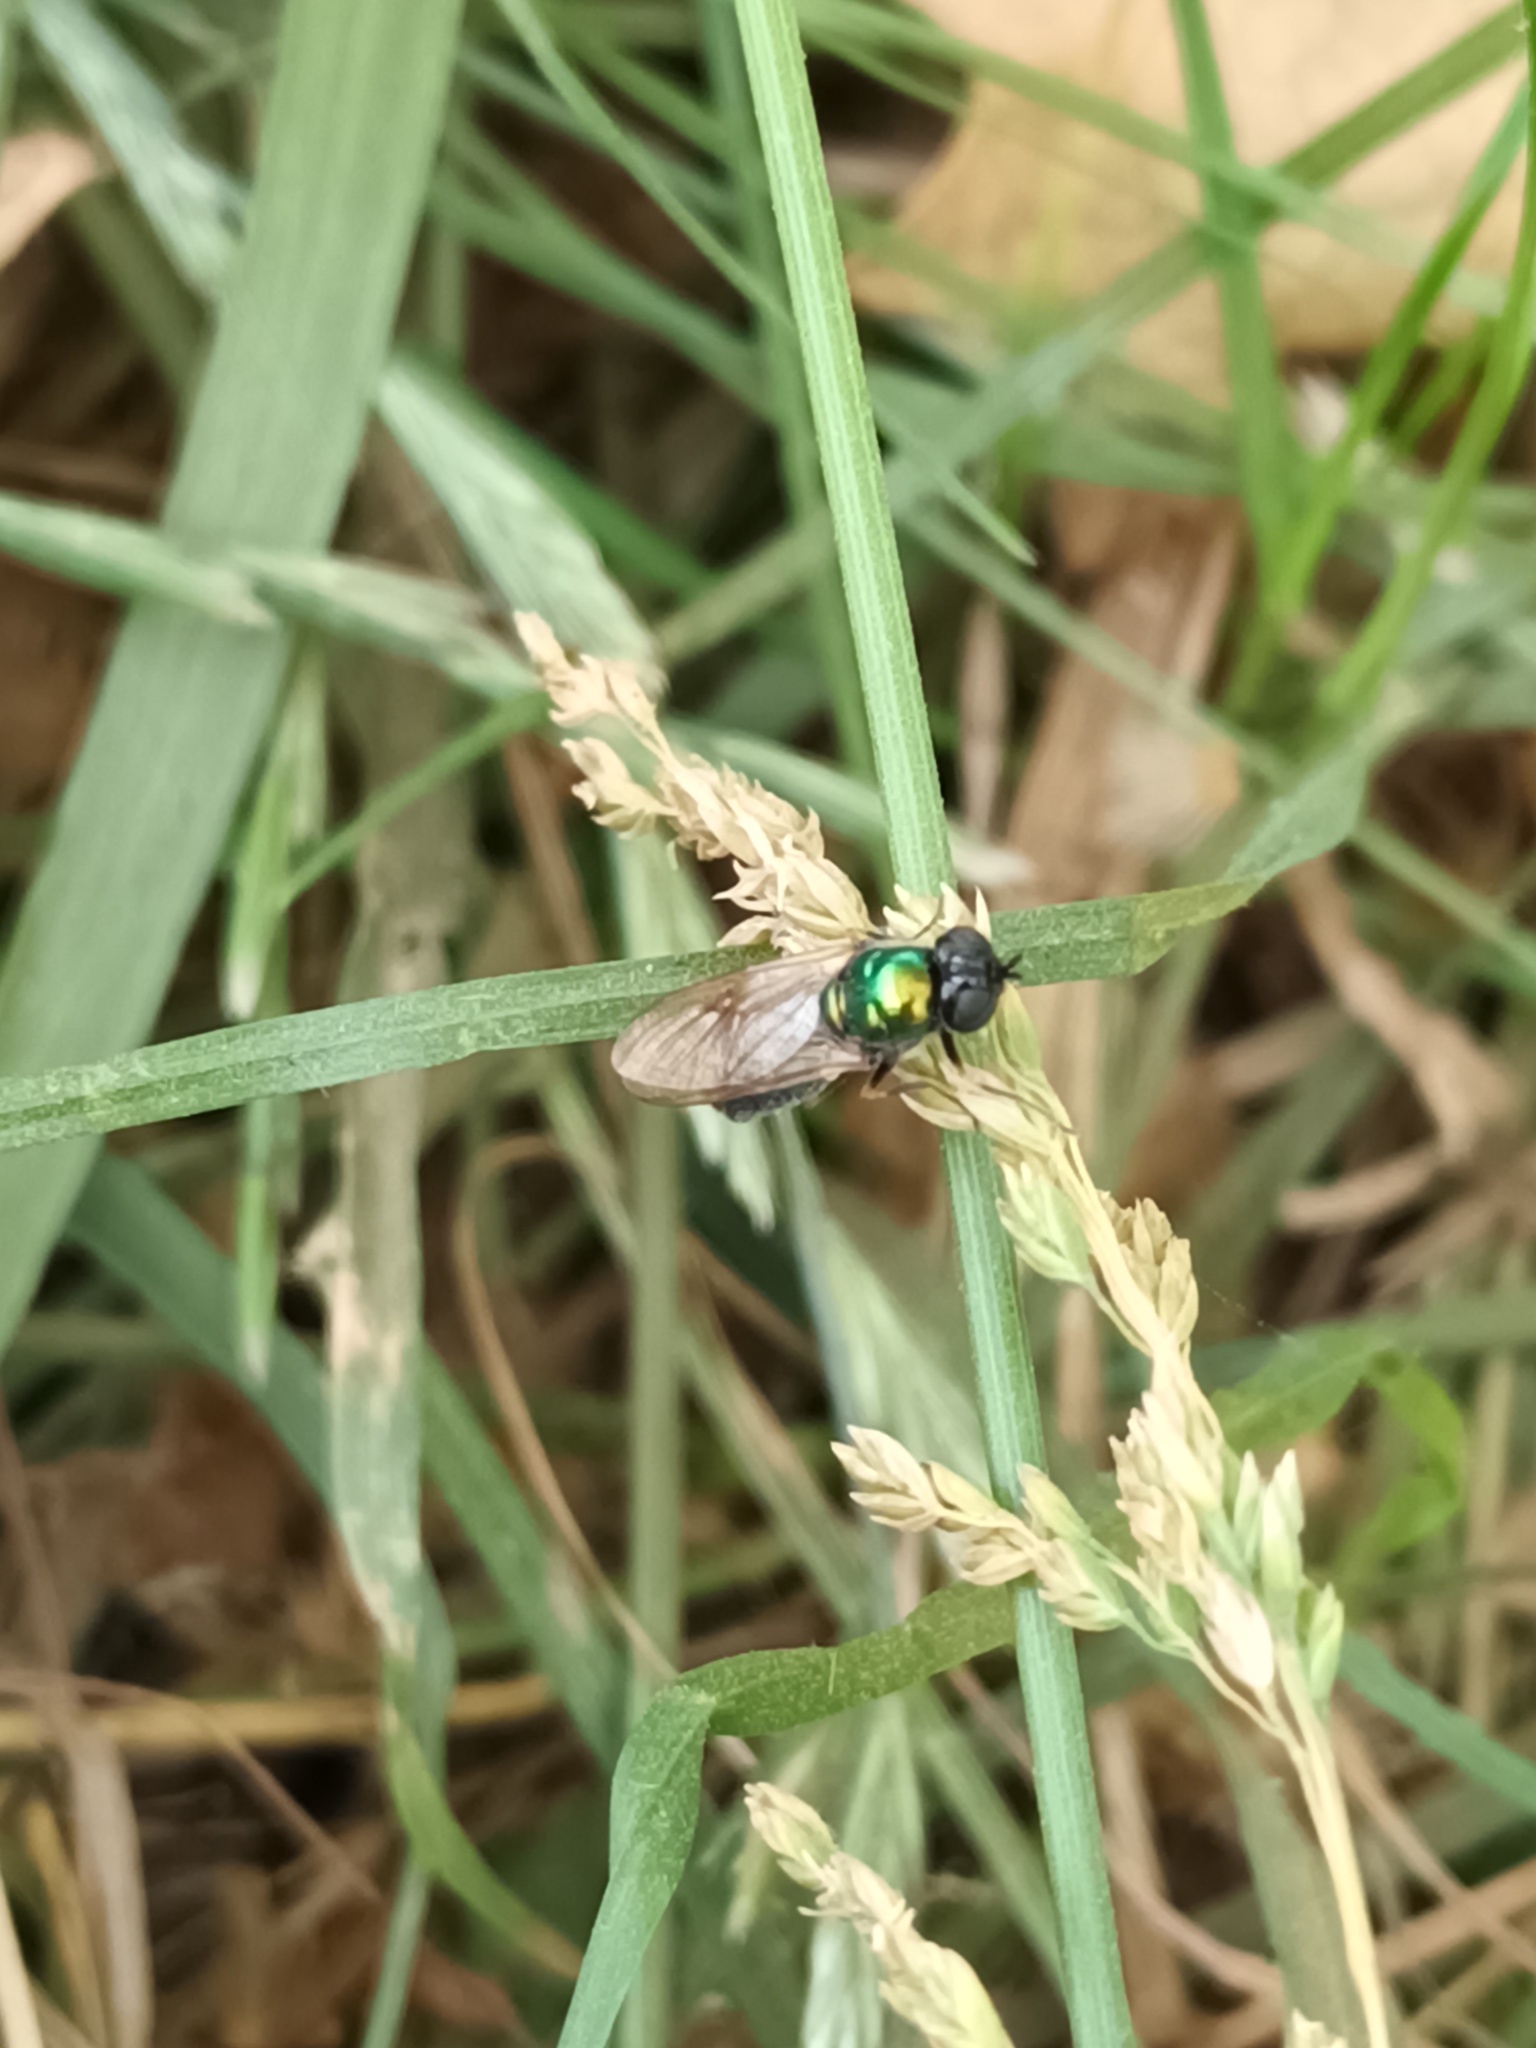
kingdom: Animalia
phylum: Arthropoda
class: Insecta
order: Diptera
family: Stratiomyidae
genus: Chloromyia
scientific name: Chloromyia formosa
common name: Soldier fly
